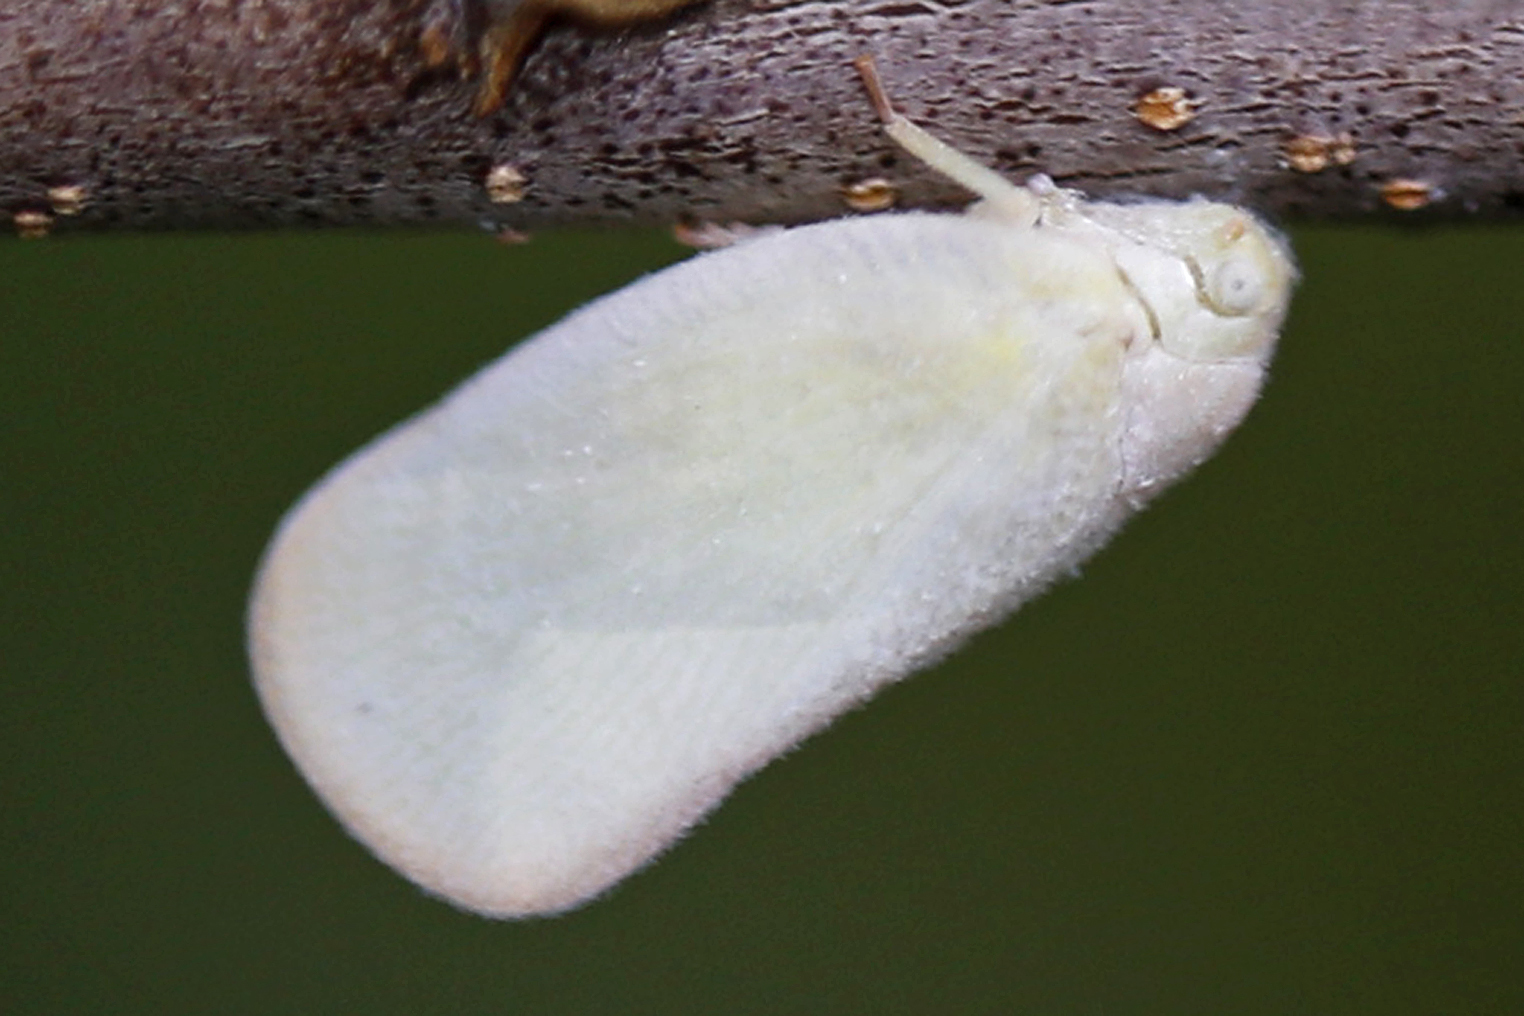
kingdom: Animalia
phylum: Arthropoda
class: Insecta
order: Hemiptera
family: Flatidae
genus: Ormenoides
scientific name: Ormenoides venusta
